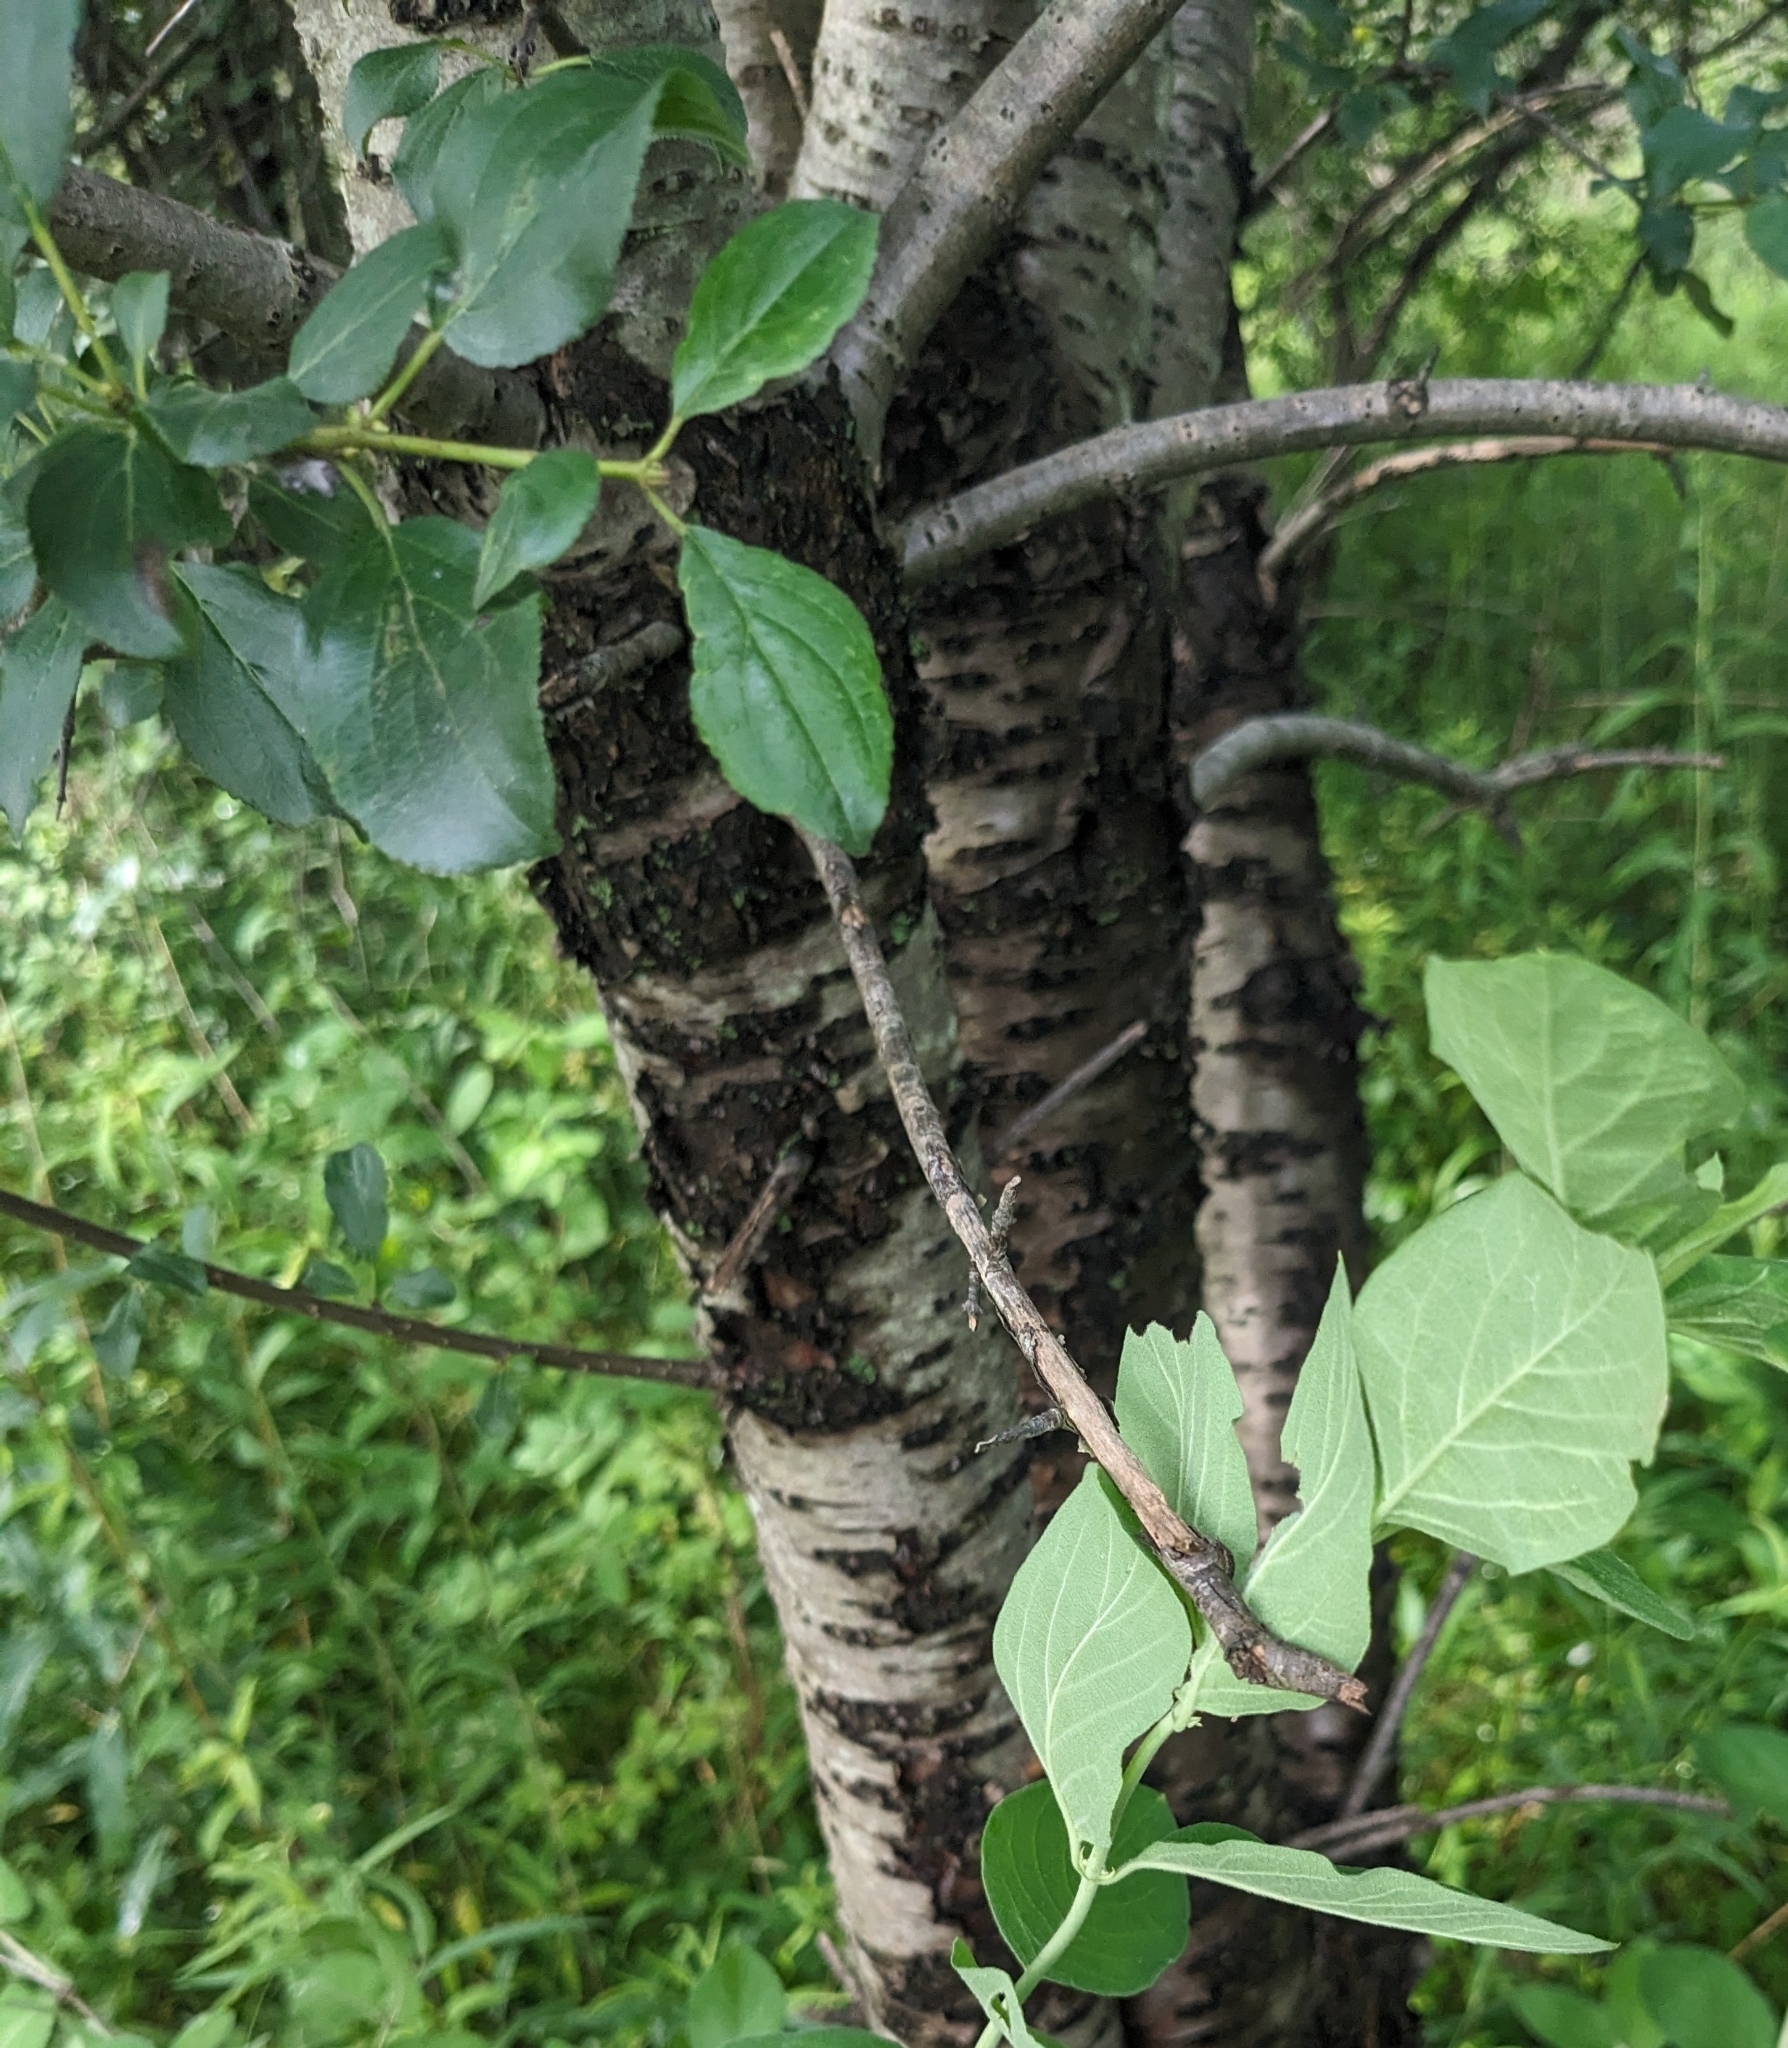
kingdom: Plantae
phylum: Tracheophyta
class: Magnoliopsida
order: Rosales
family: Rhamnaceae
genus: Rhamnus
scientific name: Rhamnus cathartica
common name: Common buckthorn
